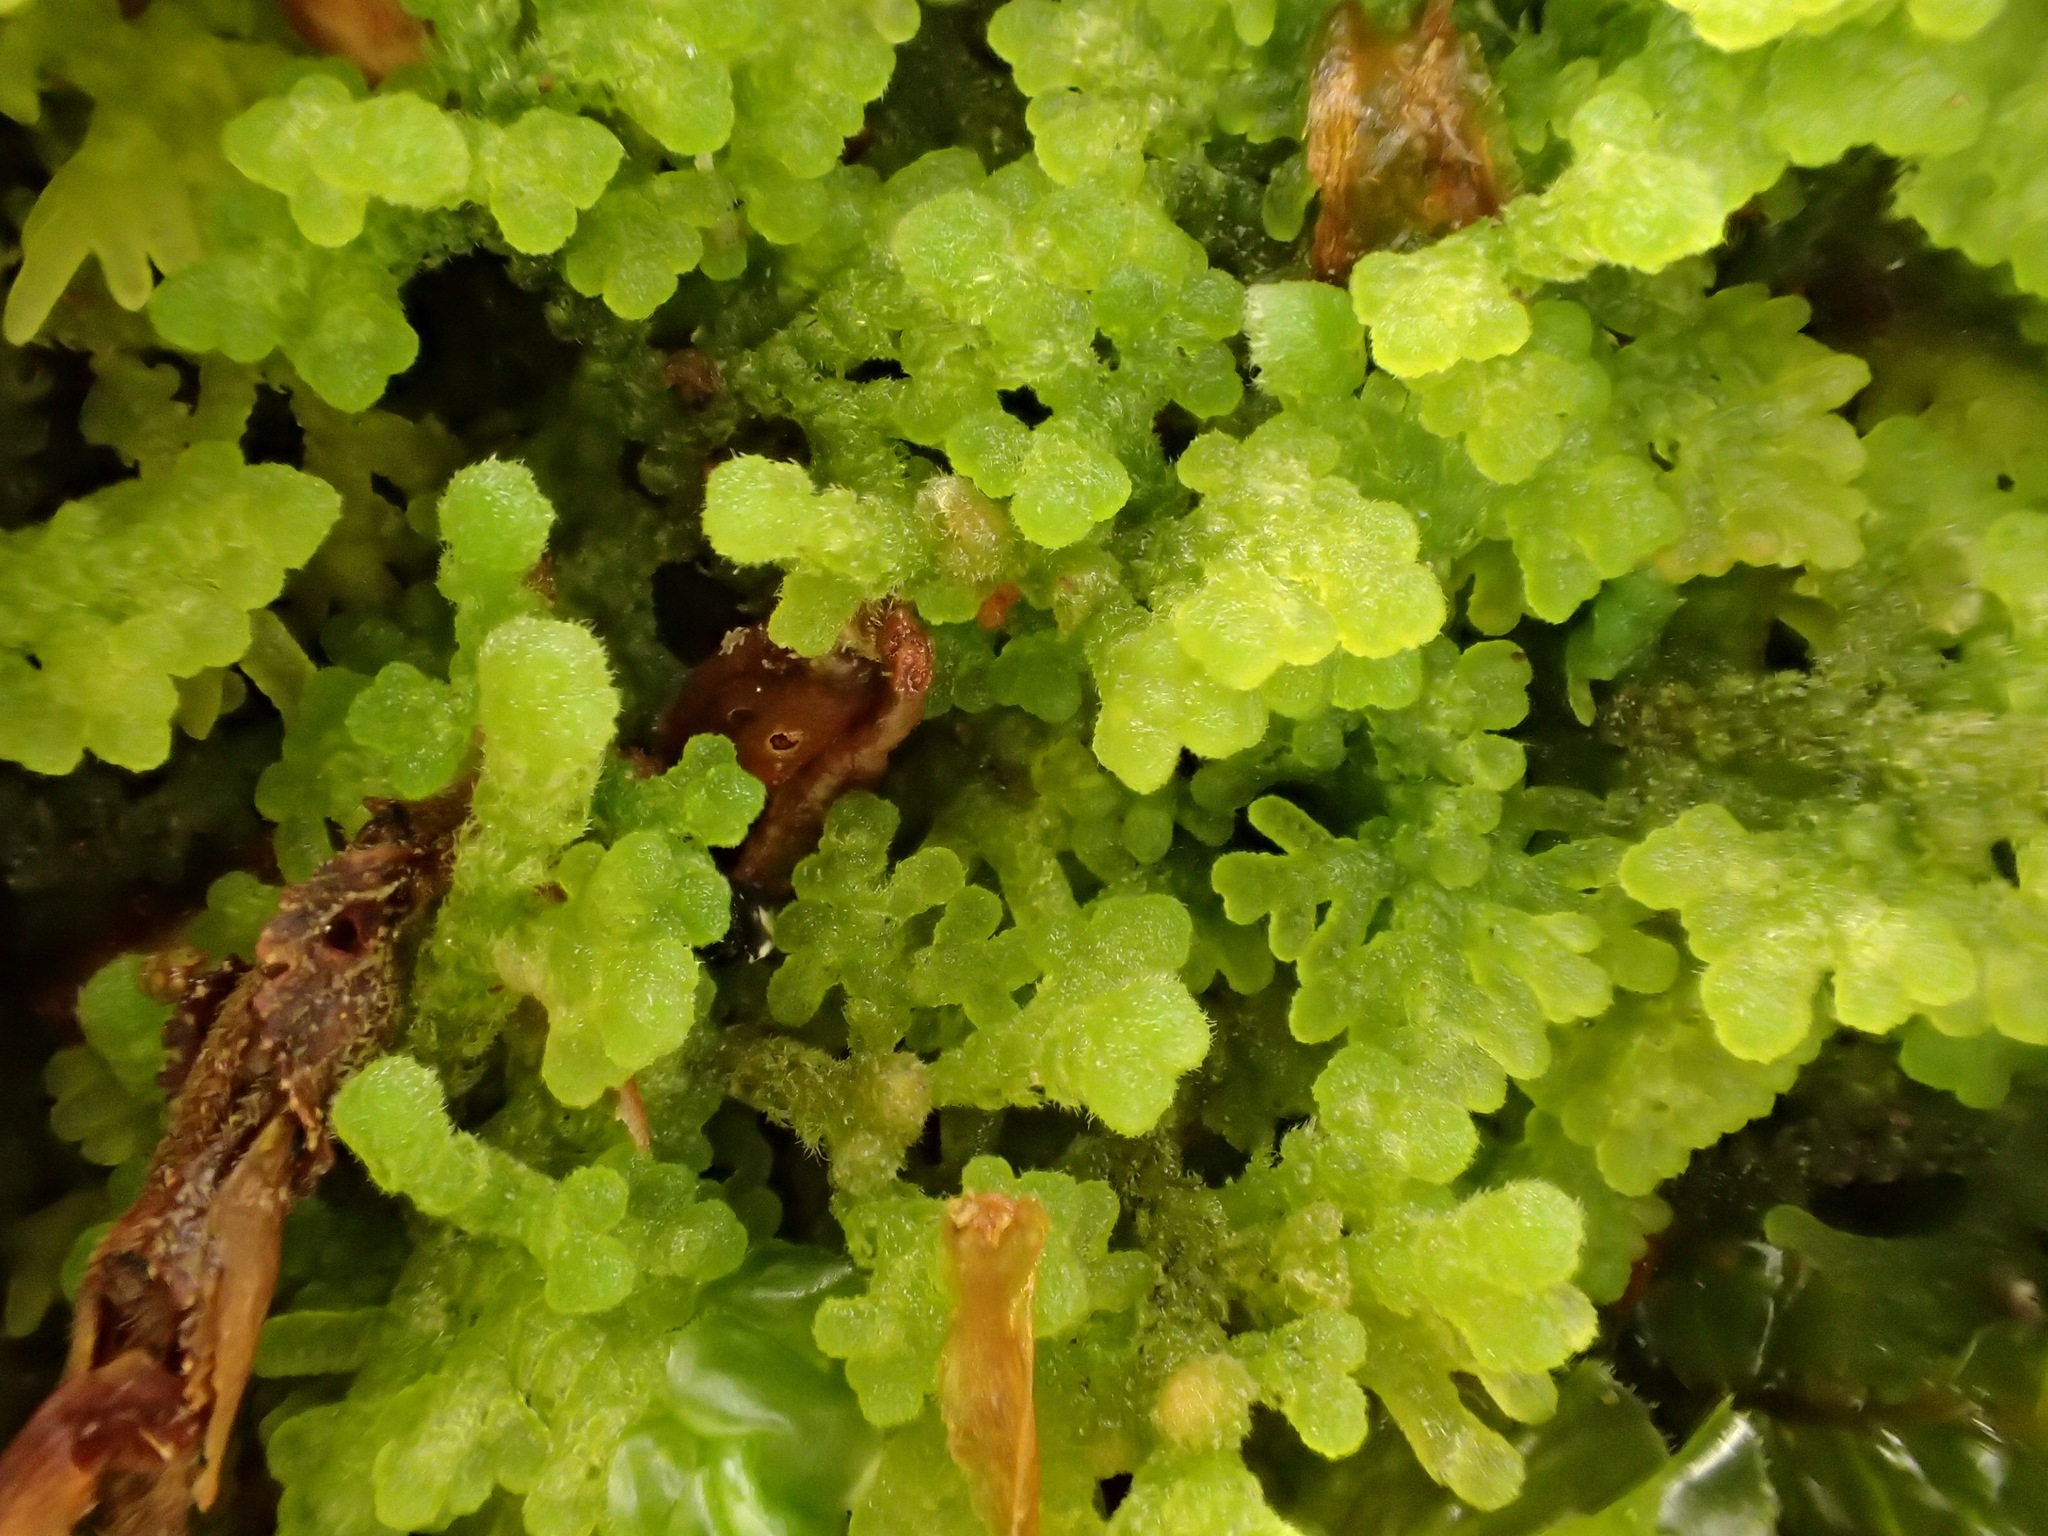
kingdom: Plantae
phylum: Marchantiophyta
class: Jungermanniopsida
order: Jungermanniales
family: Trichocoleaceae
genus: Trichocolea
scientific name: Trichocolea mollissima
